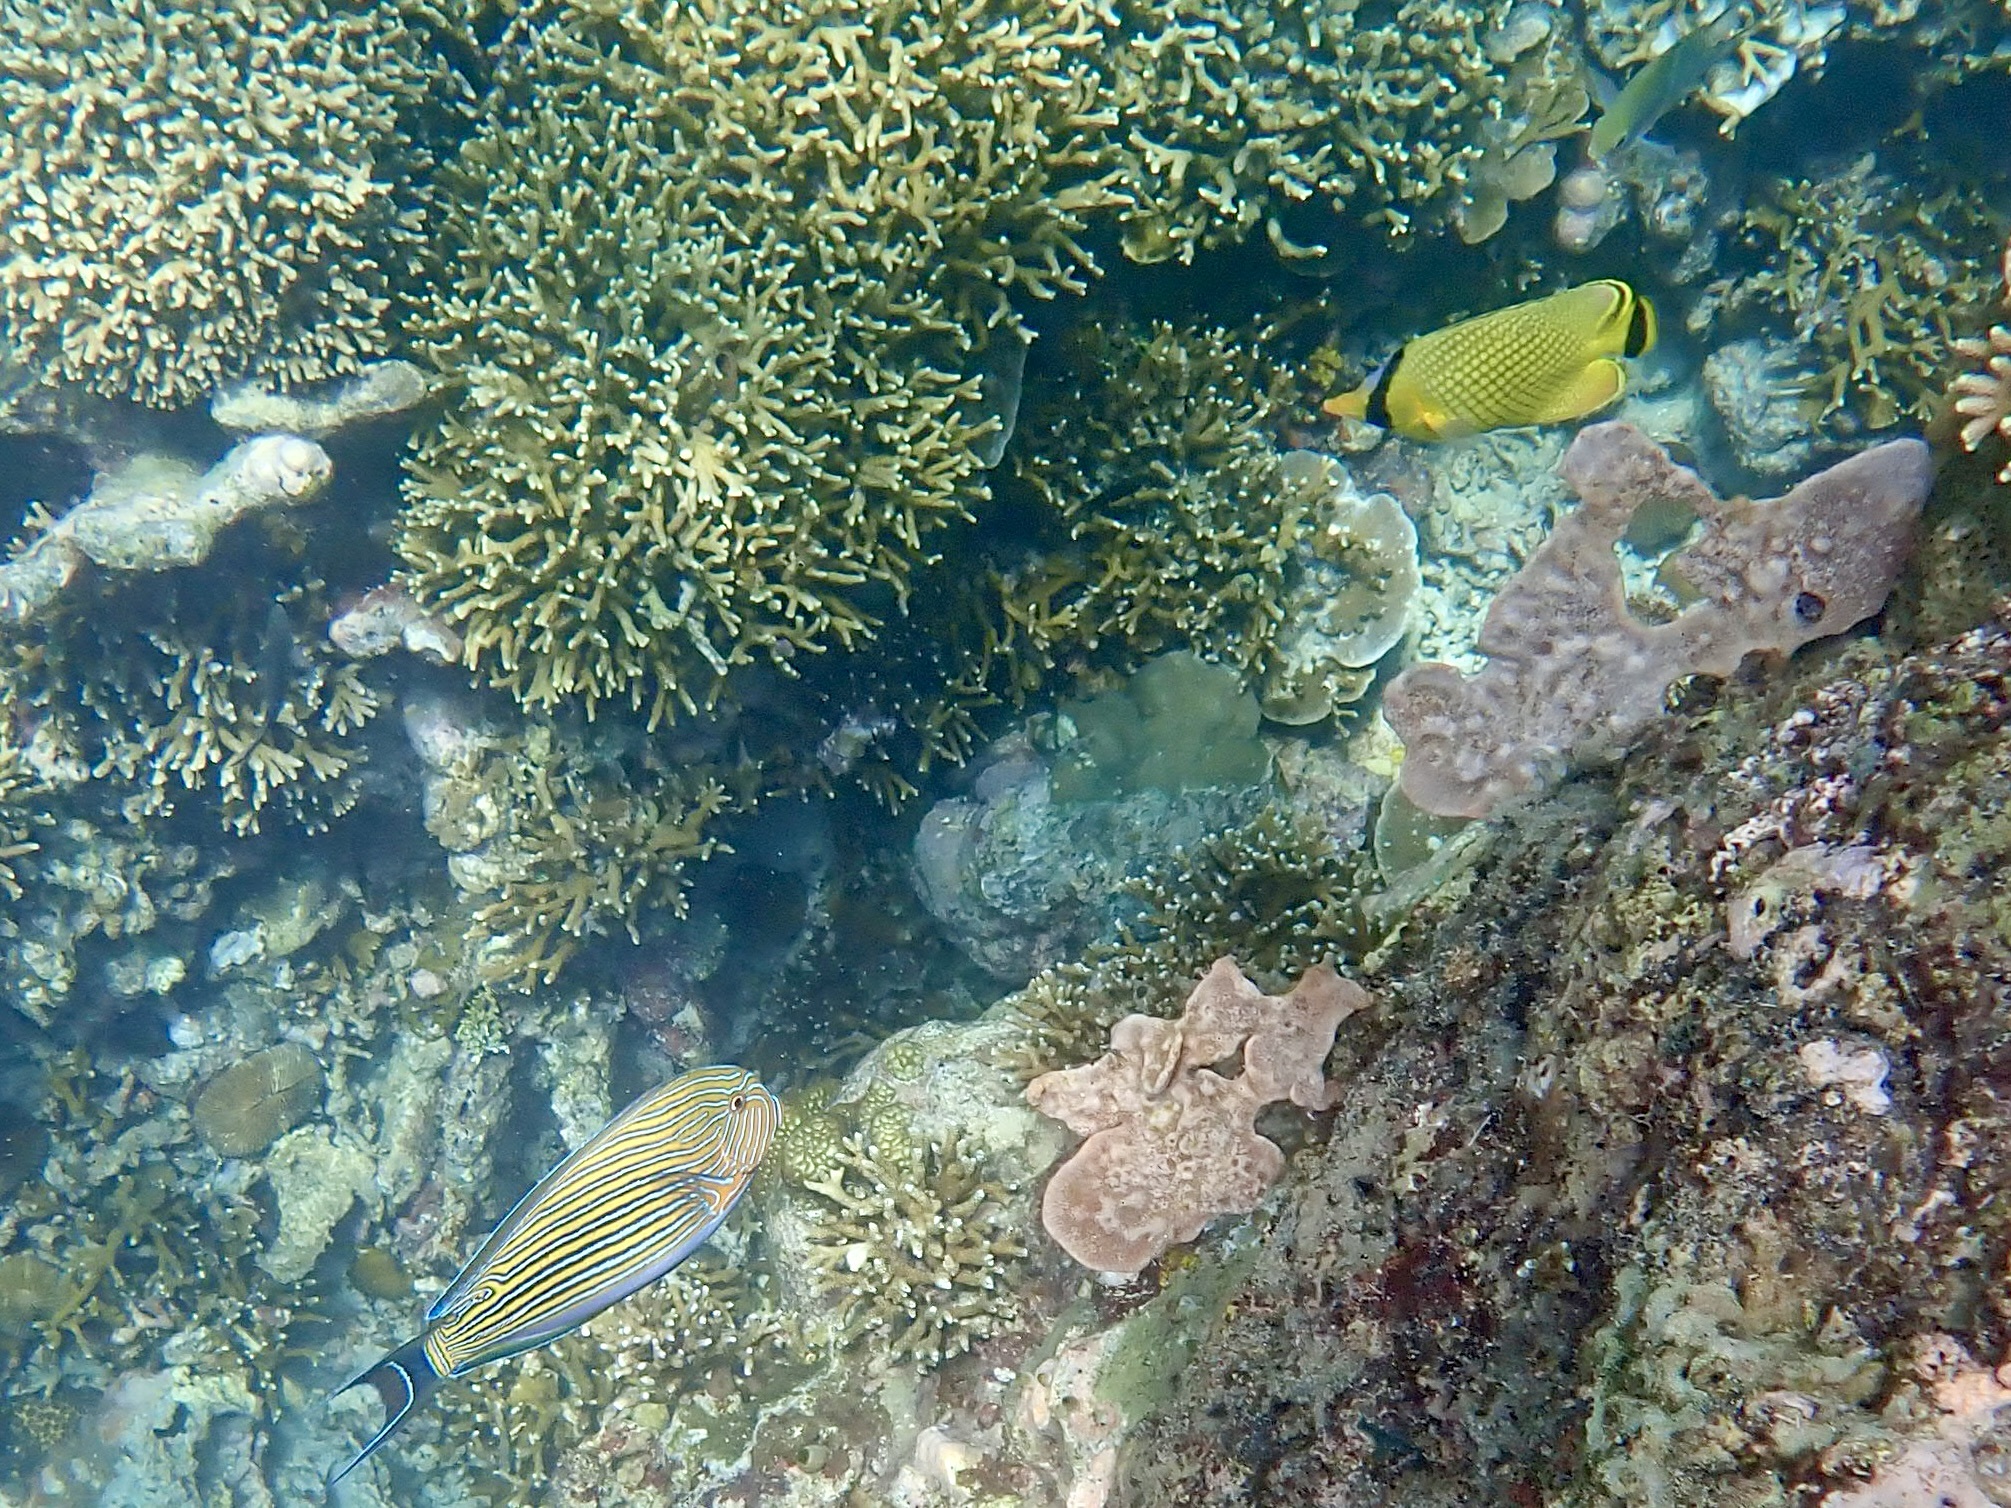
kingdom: Animalia
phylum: Chordata
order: Perciformes
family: Chaetodontidae
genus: Chaetodon
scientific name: Chaetodon rafflesii
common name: Latticed butterflyfish
